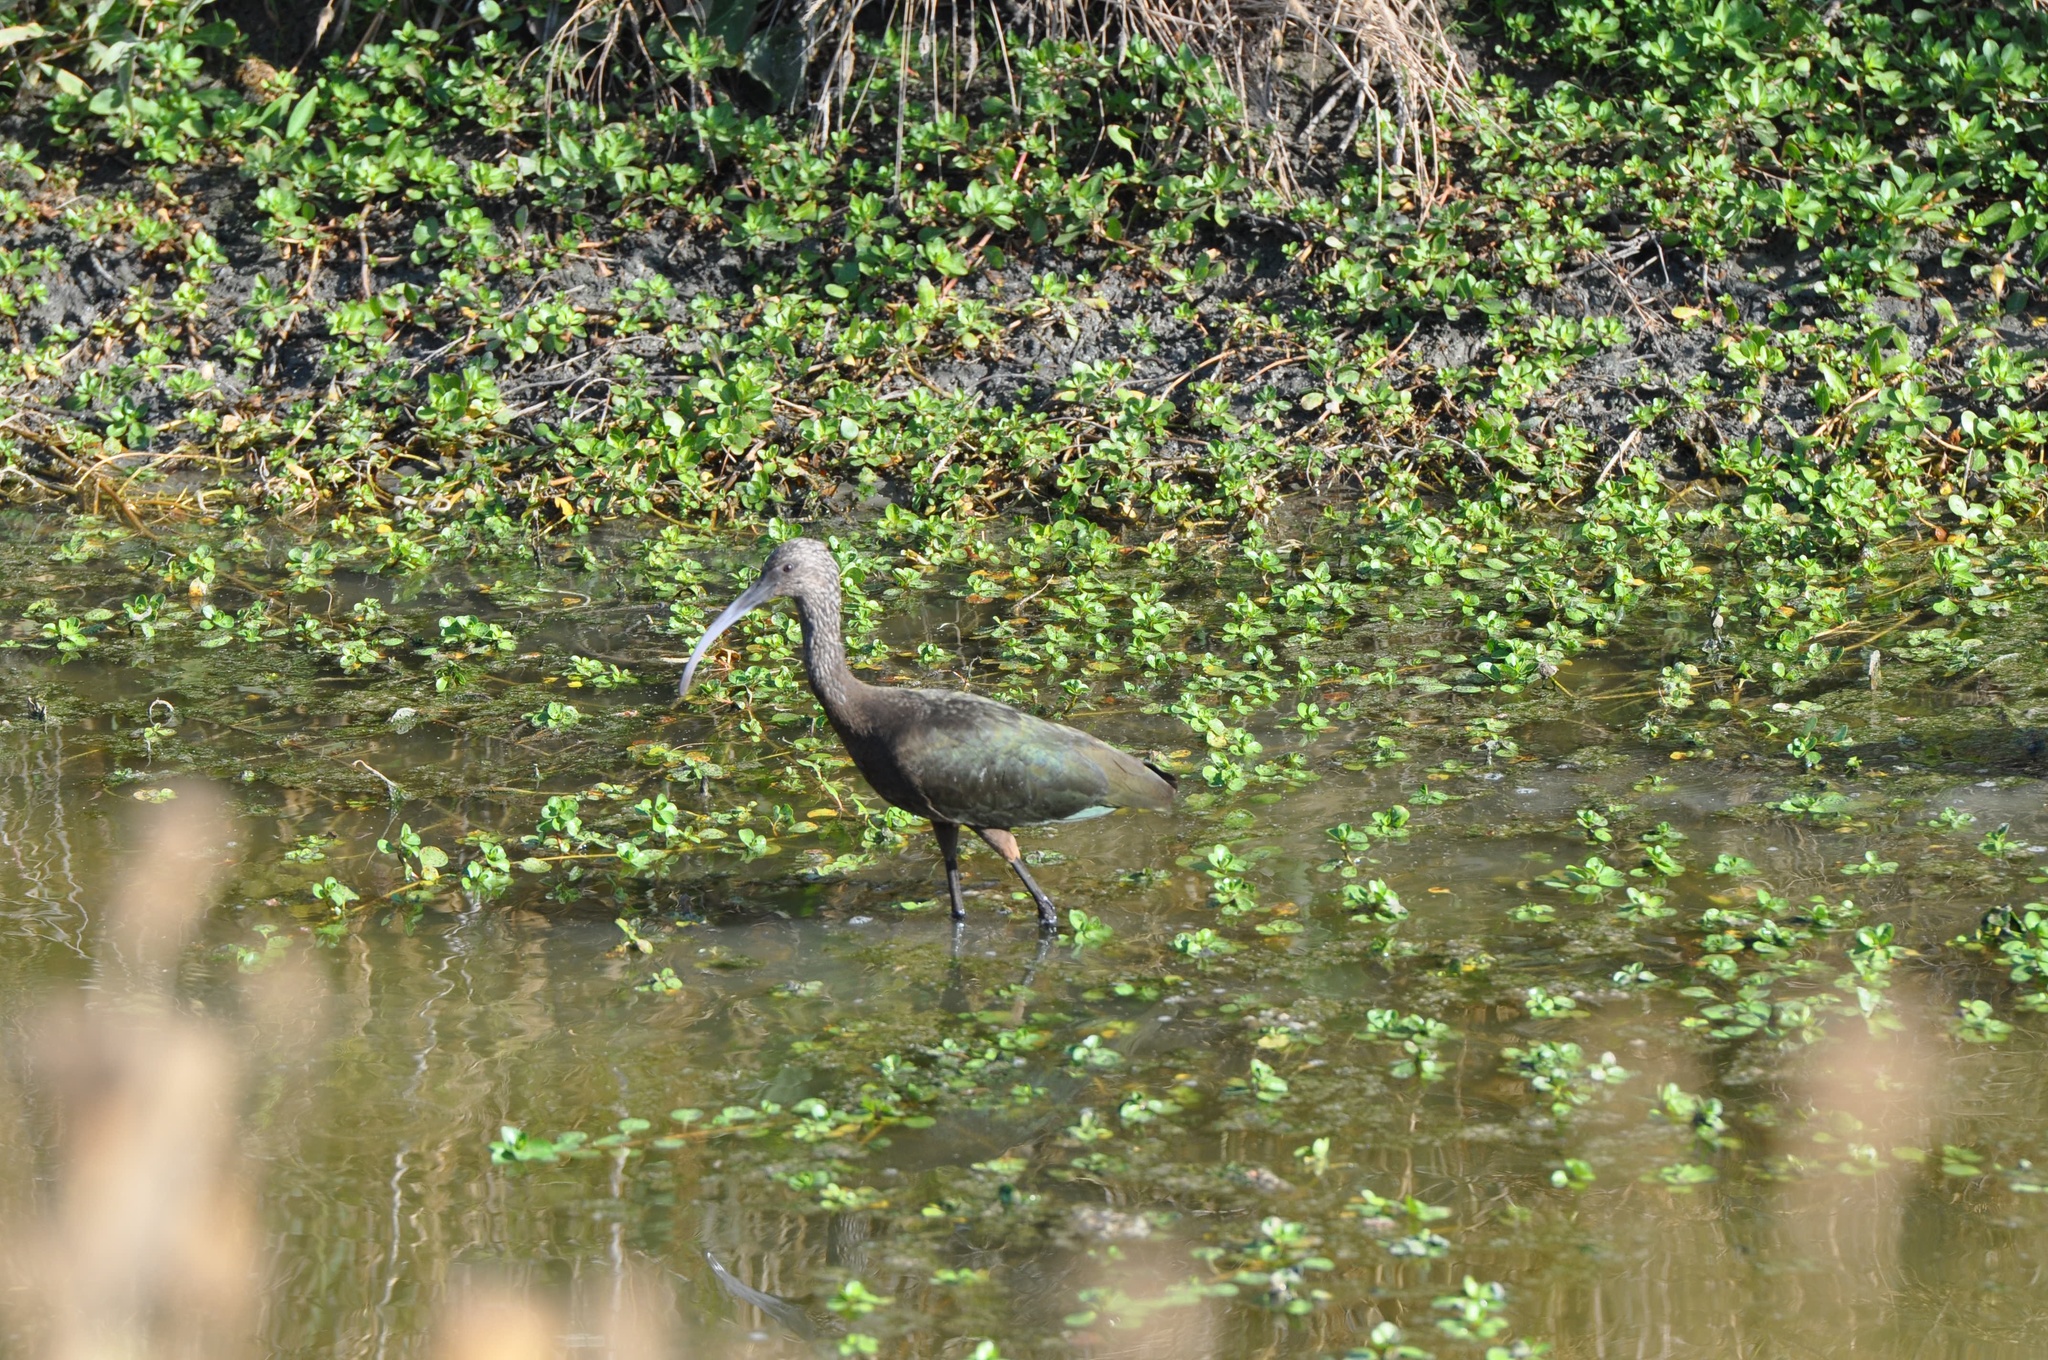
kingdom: Animalia
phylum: Chordata
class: Aves
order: Pelecaniformes
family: Threskiornithidae
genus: Plegadis
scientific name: Plegadis chihi
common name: White-faced ibis
